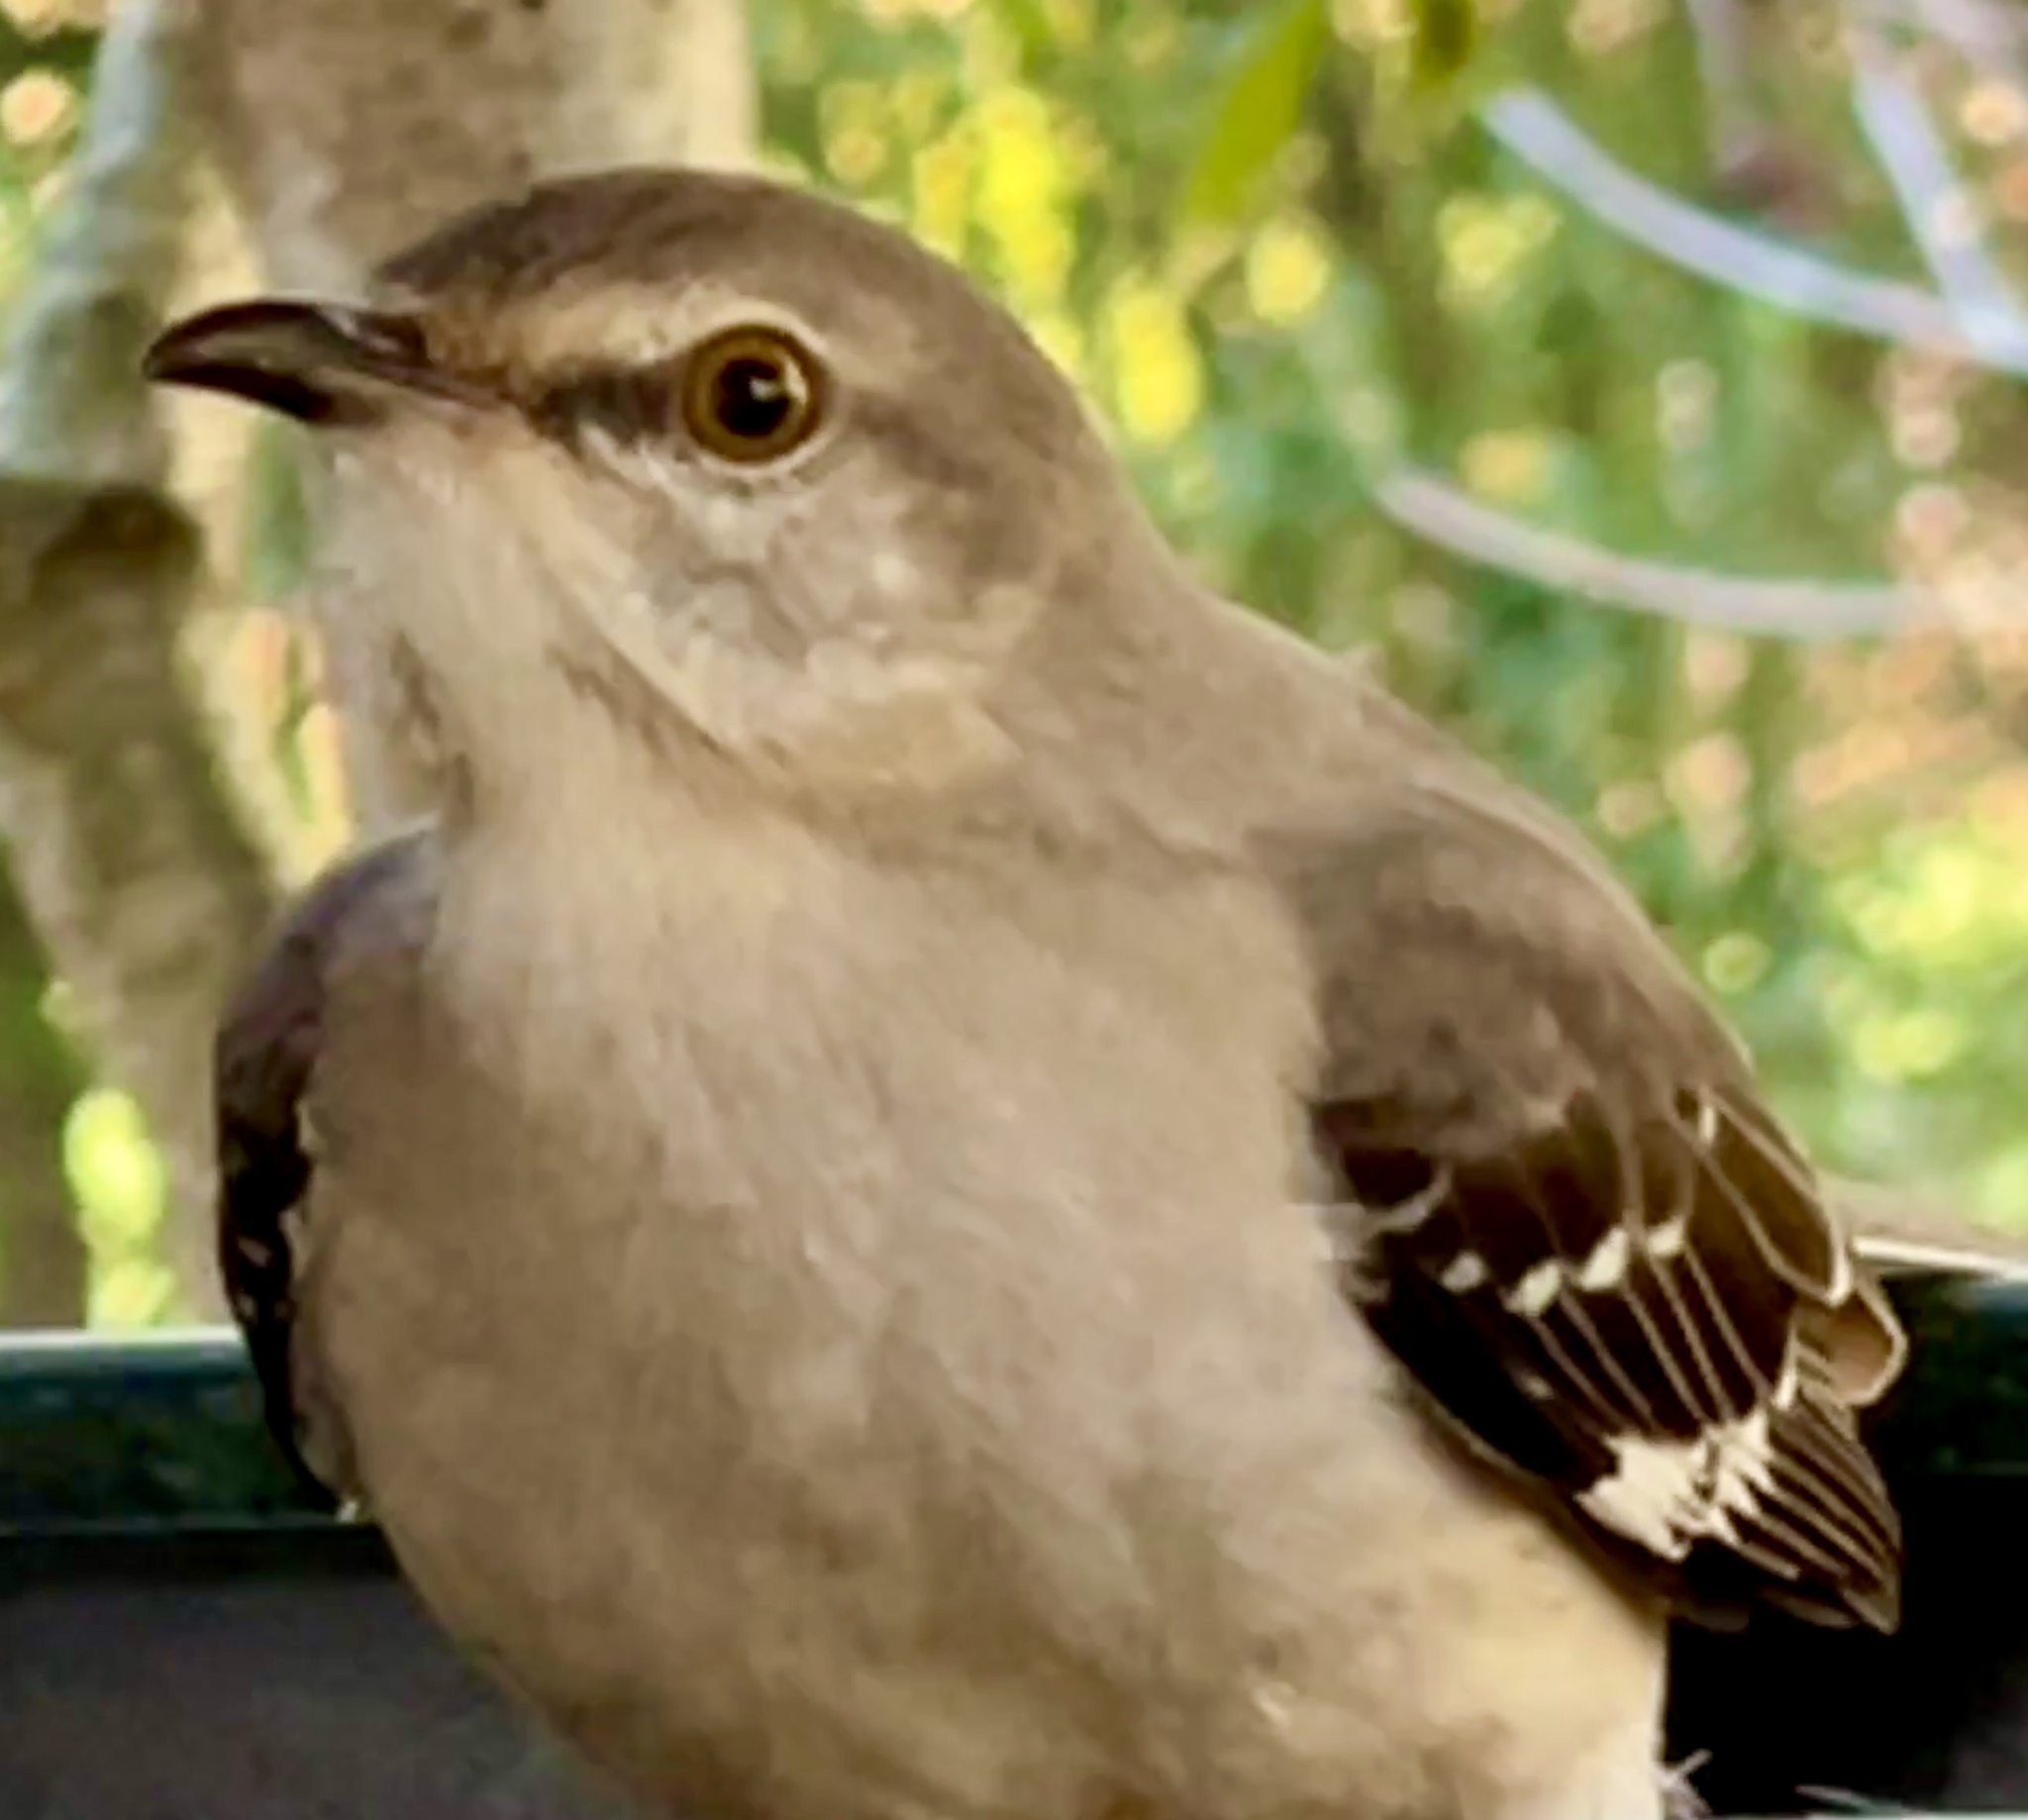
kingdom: Animalia
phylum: Chordata
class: Aves
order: Passeriformes
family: Mimidae
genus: Mimus
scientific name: Mimus polyglottos
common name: Northern mockingbird
